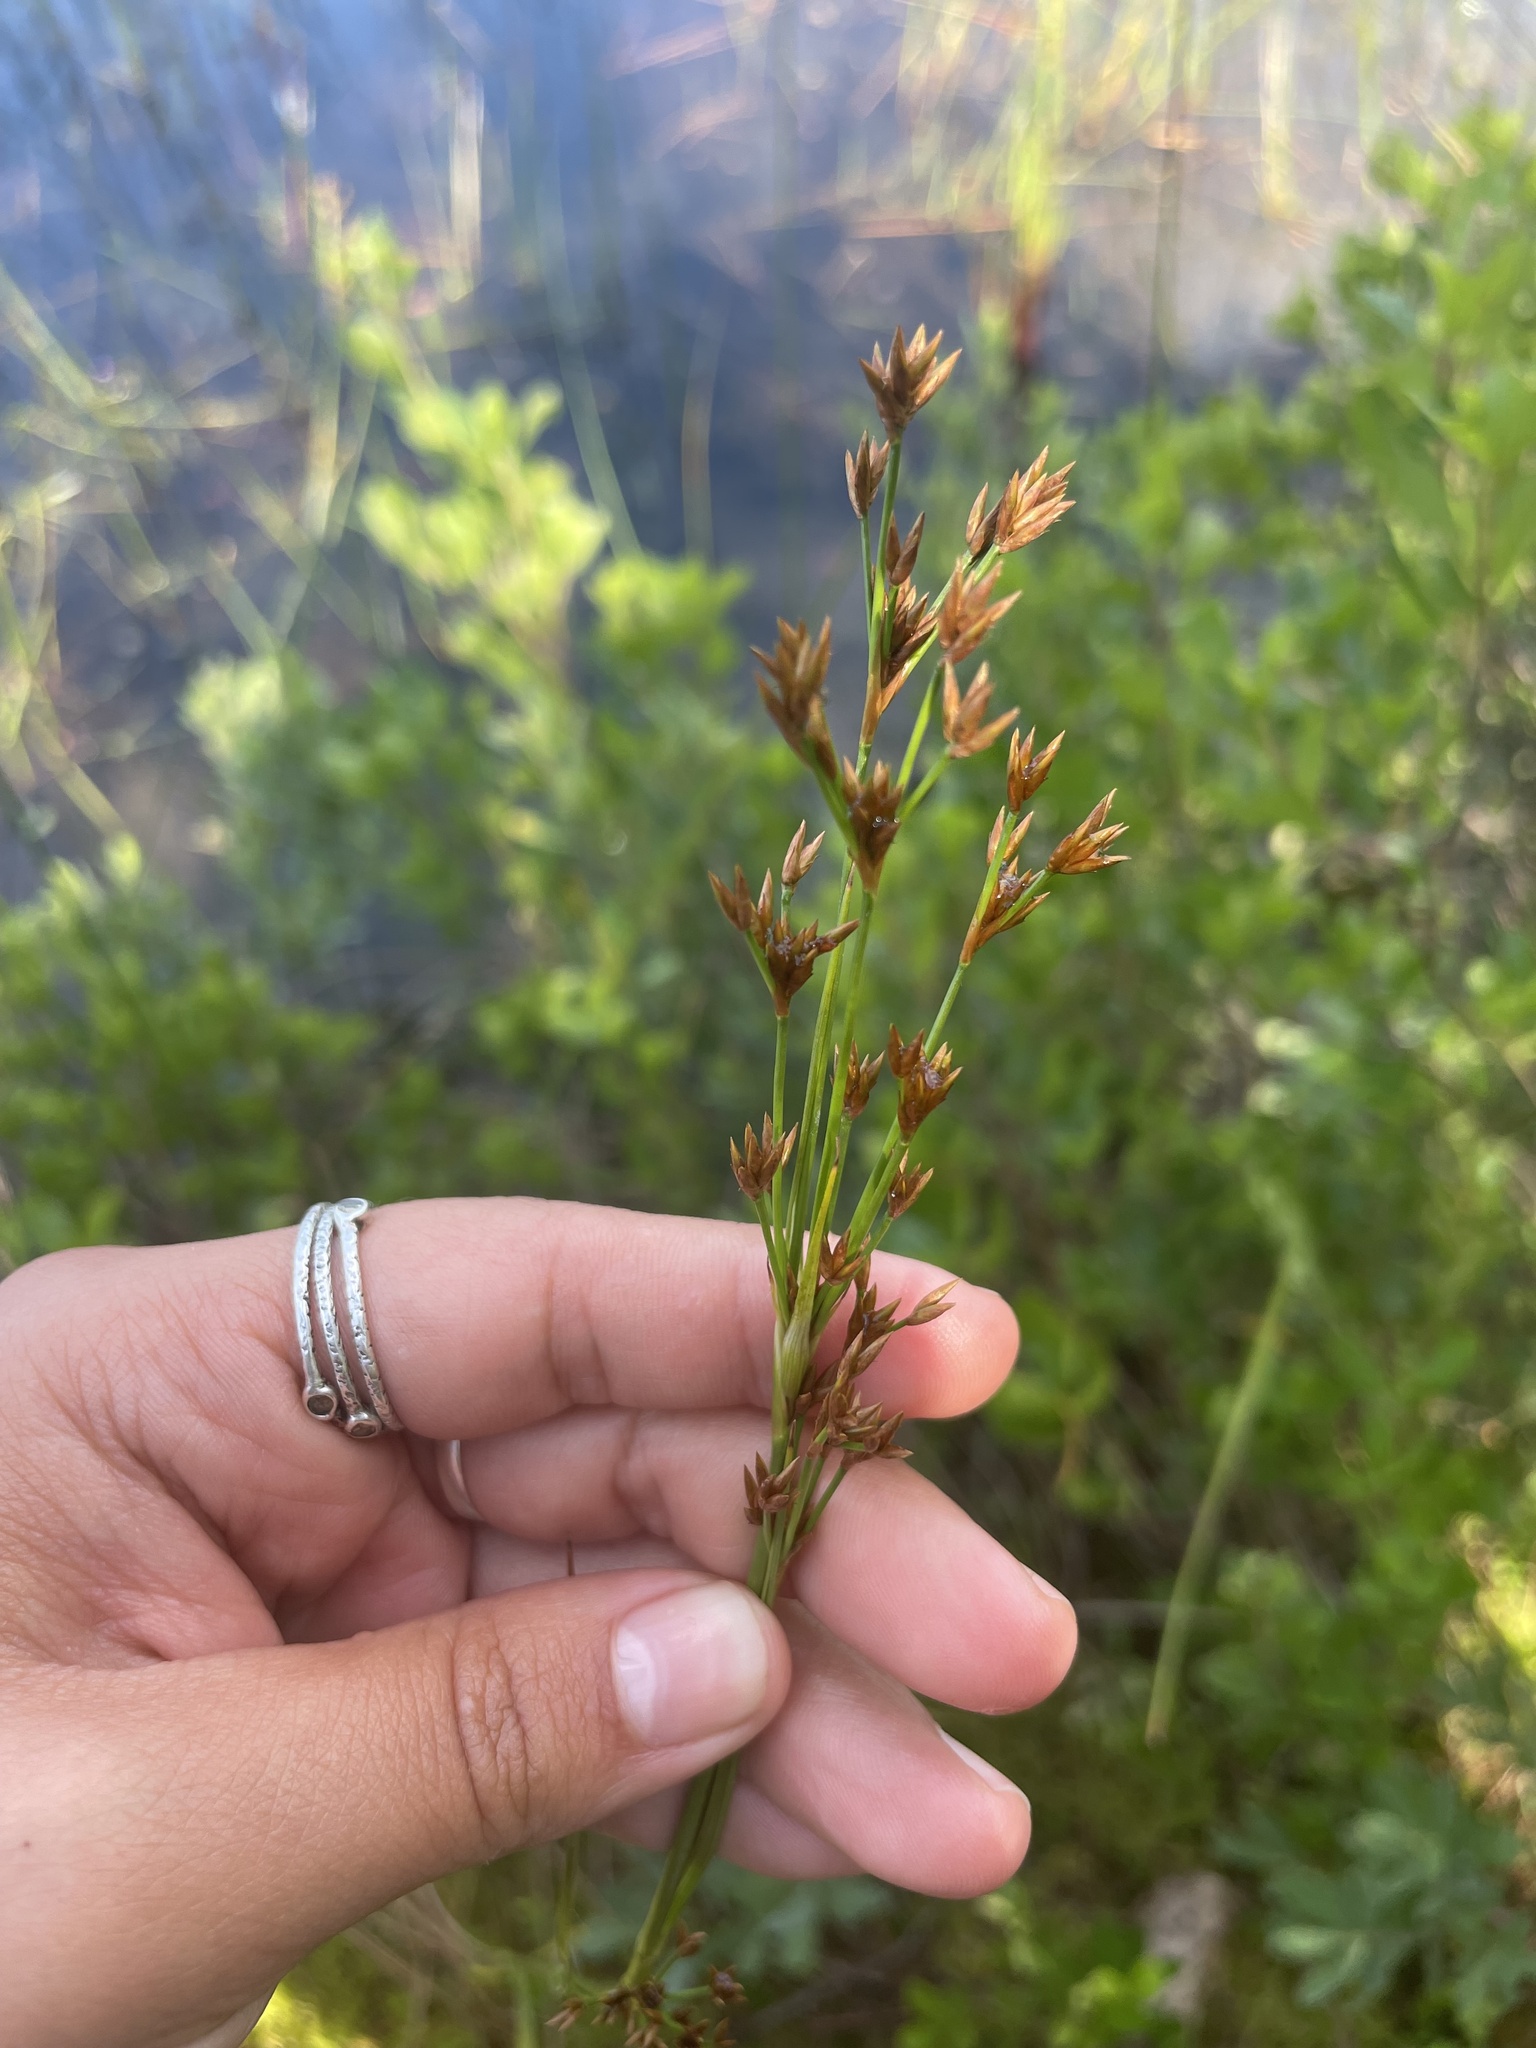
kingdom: Plantae
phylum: Tracheophyta
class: Liliopsida
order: Poales
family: Cyperaceae
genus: Cladium
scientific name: Cladium mariscoides
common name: Smooth sawgrass
